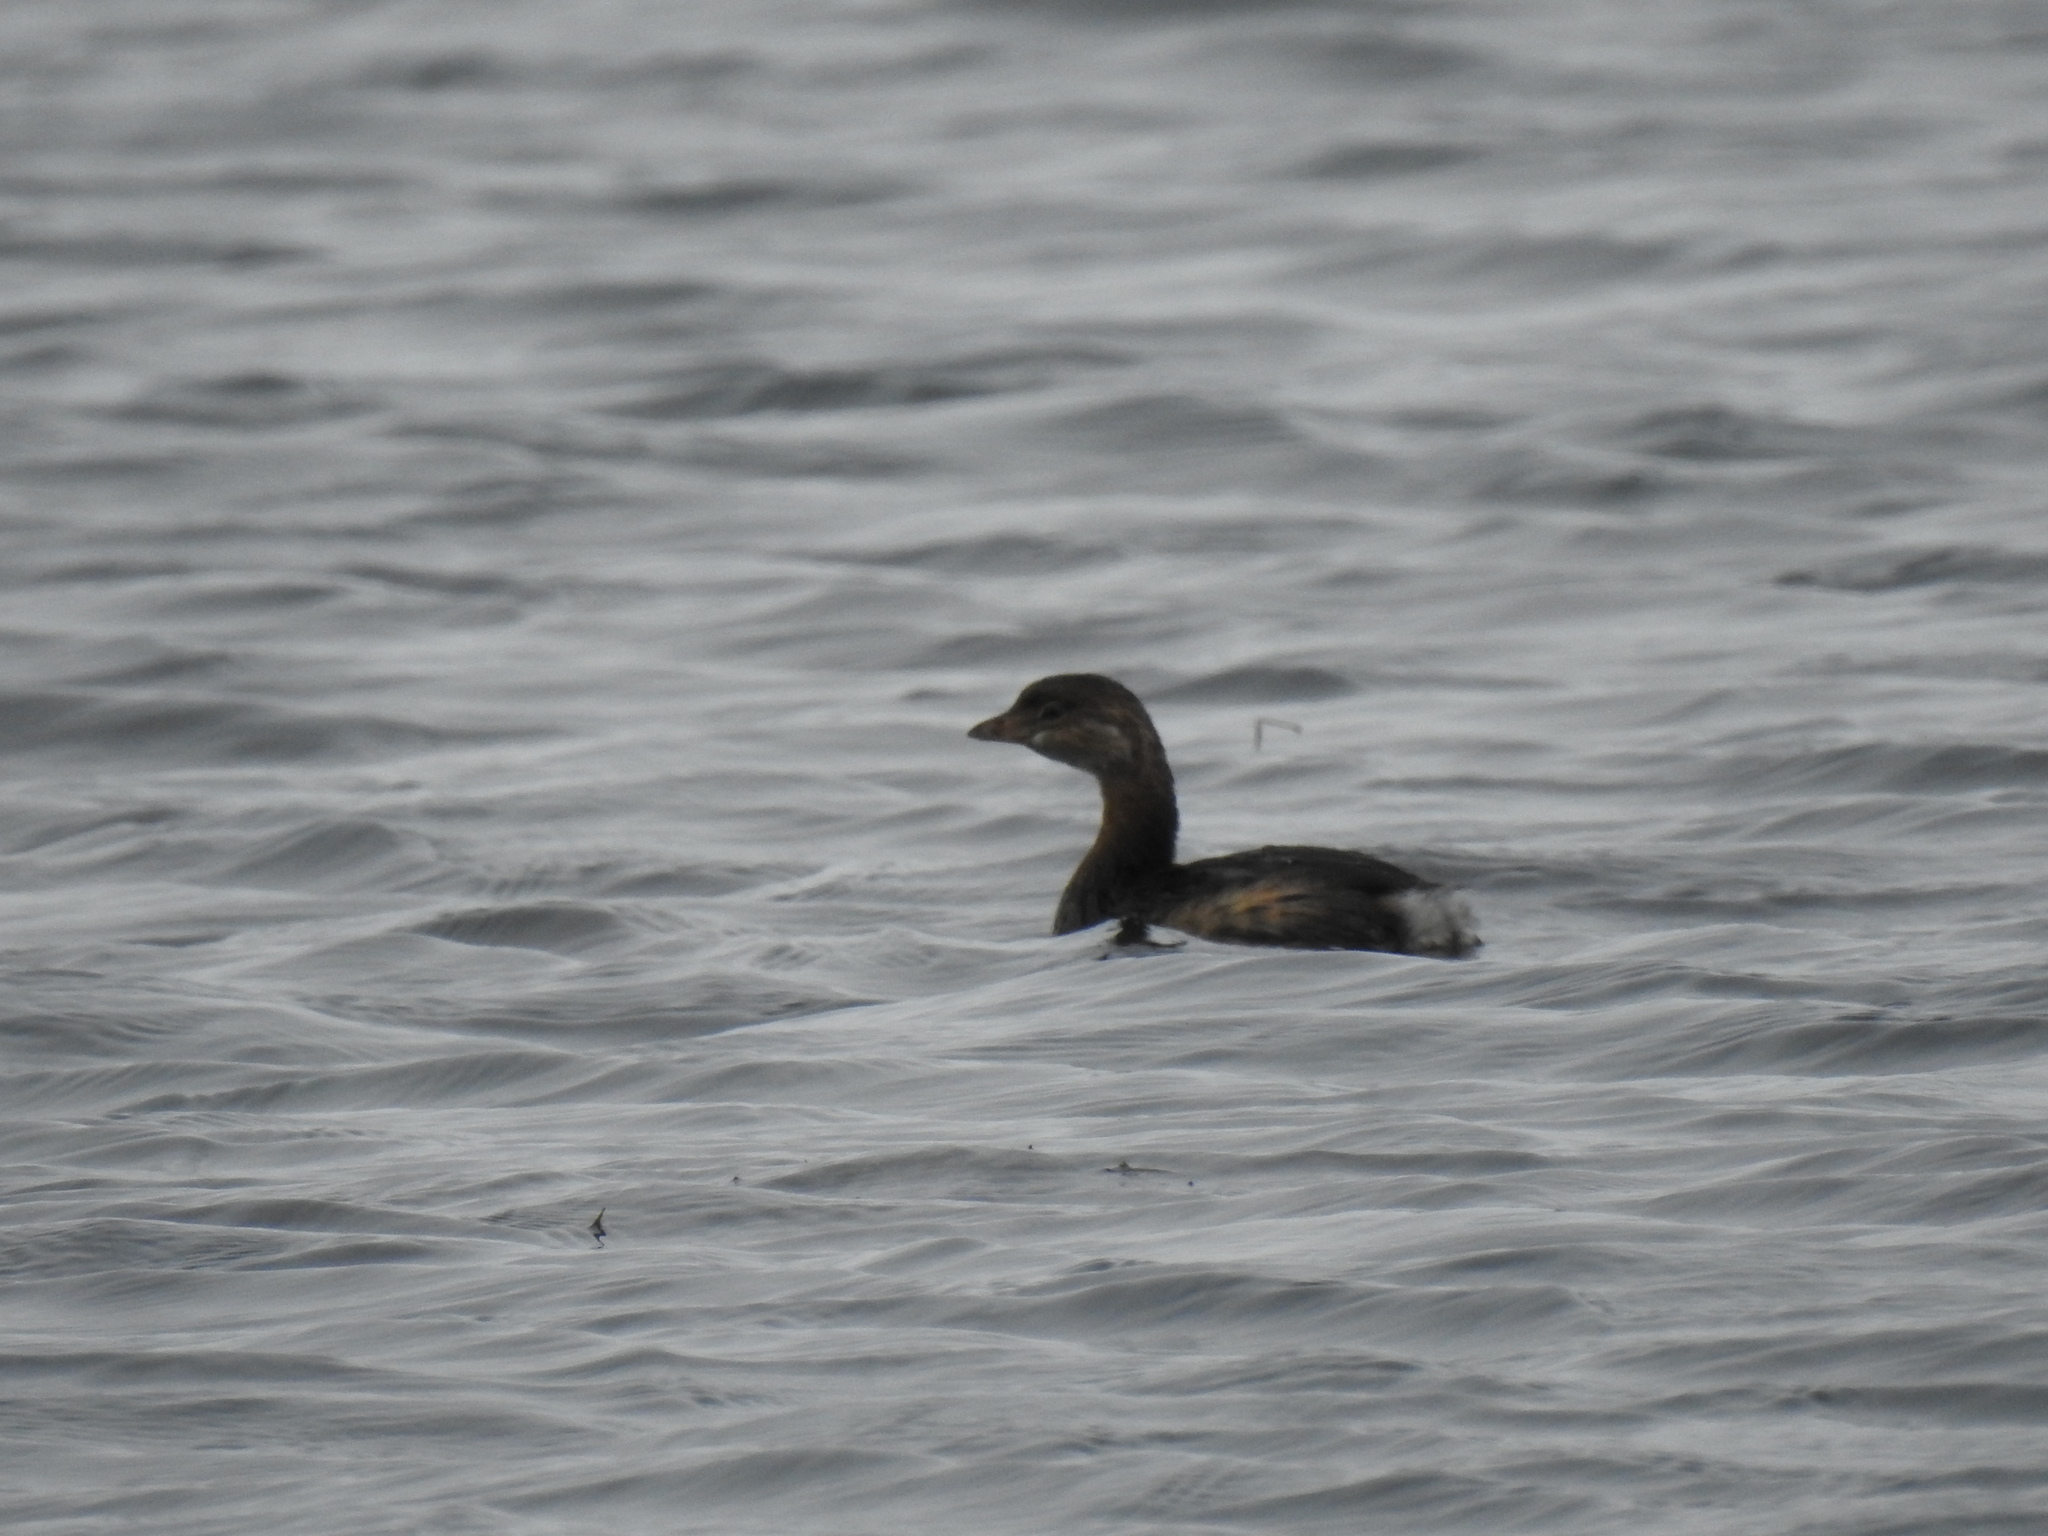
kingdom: Animalia
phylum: Chordata
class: Aves
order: Podicipediformes
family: Podicipedidae
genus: Podilymbus
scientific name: Podilymbus podiceps
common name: Pied-billed grebe
